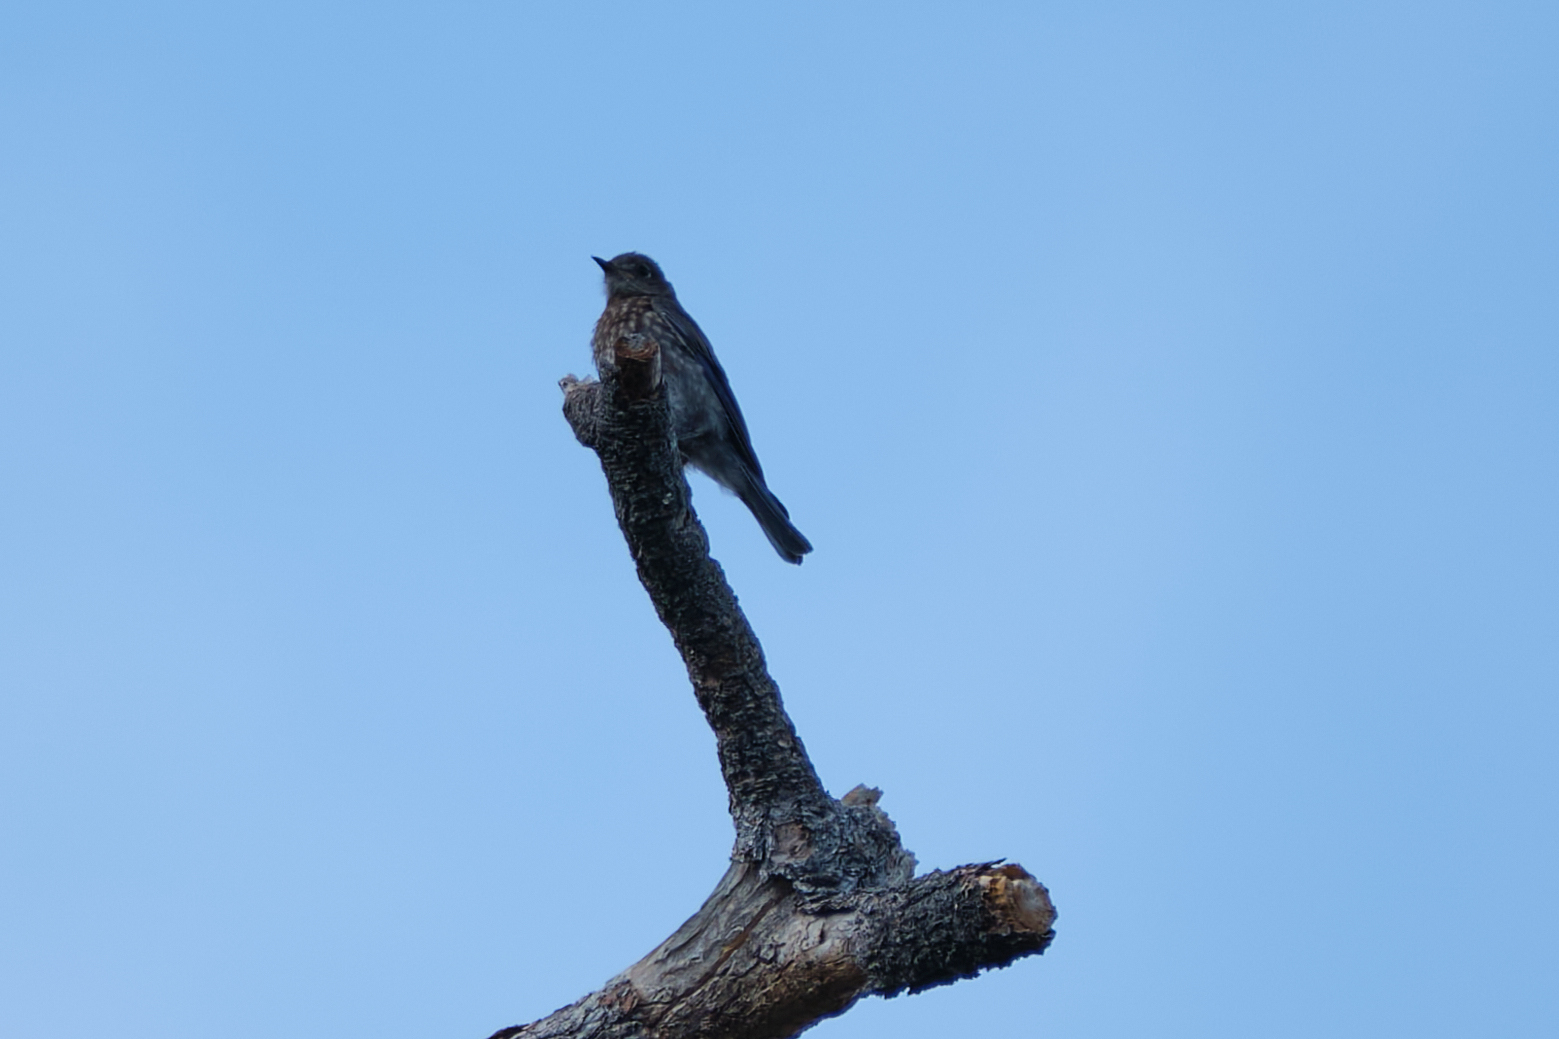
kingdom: Animalia
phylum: Chordata
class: Aves
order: Passeriformes
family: Turdidae
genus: Sialia
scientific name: Sialia mexicana
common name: Western bluebird
